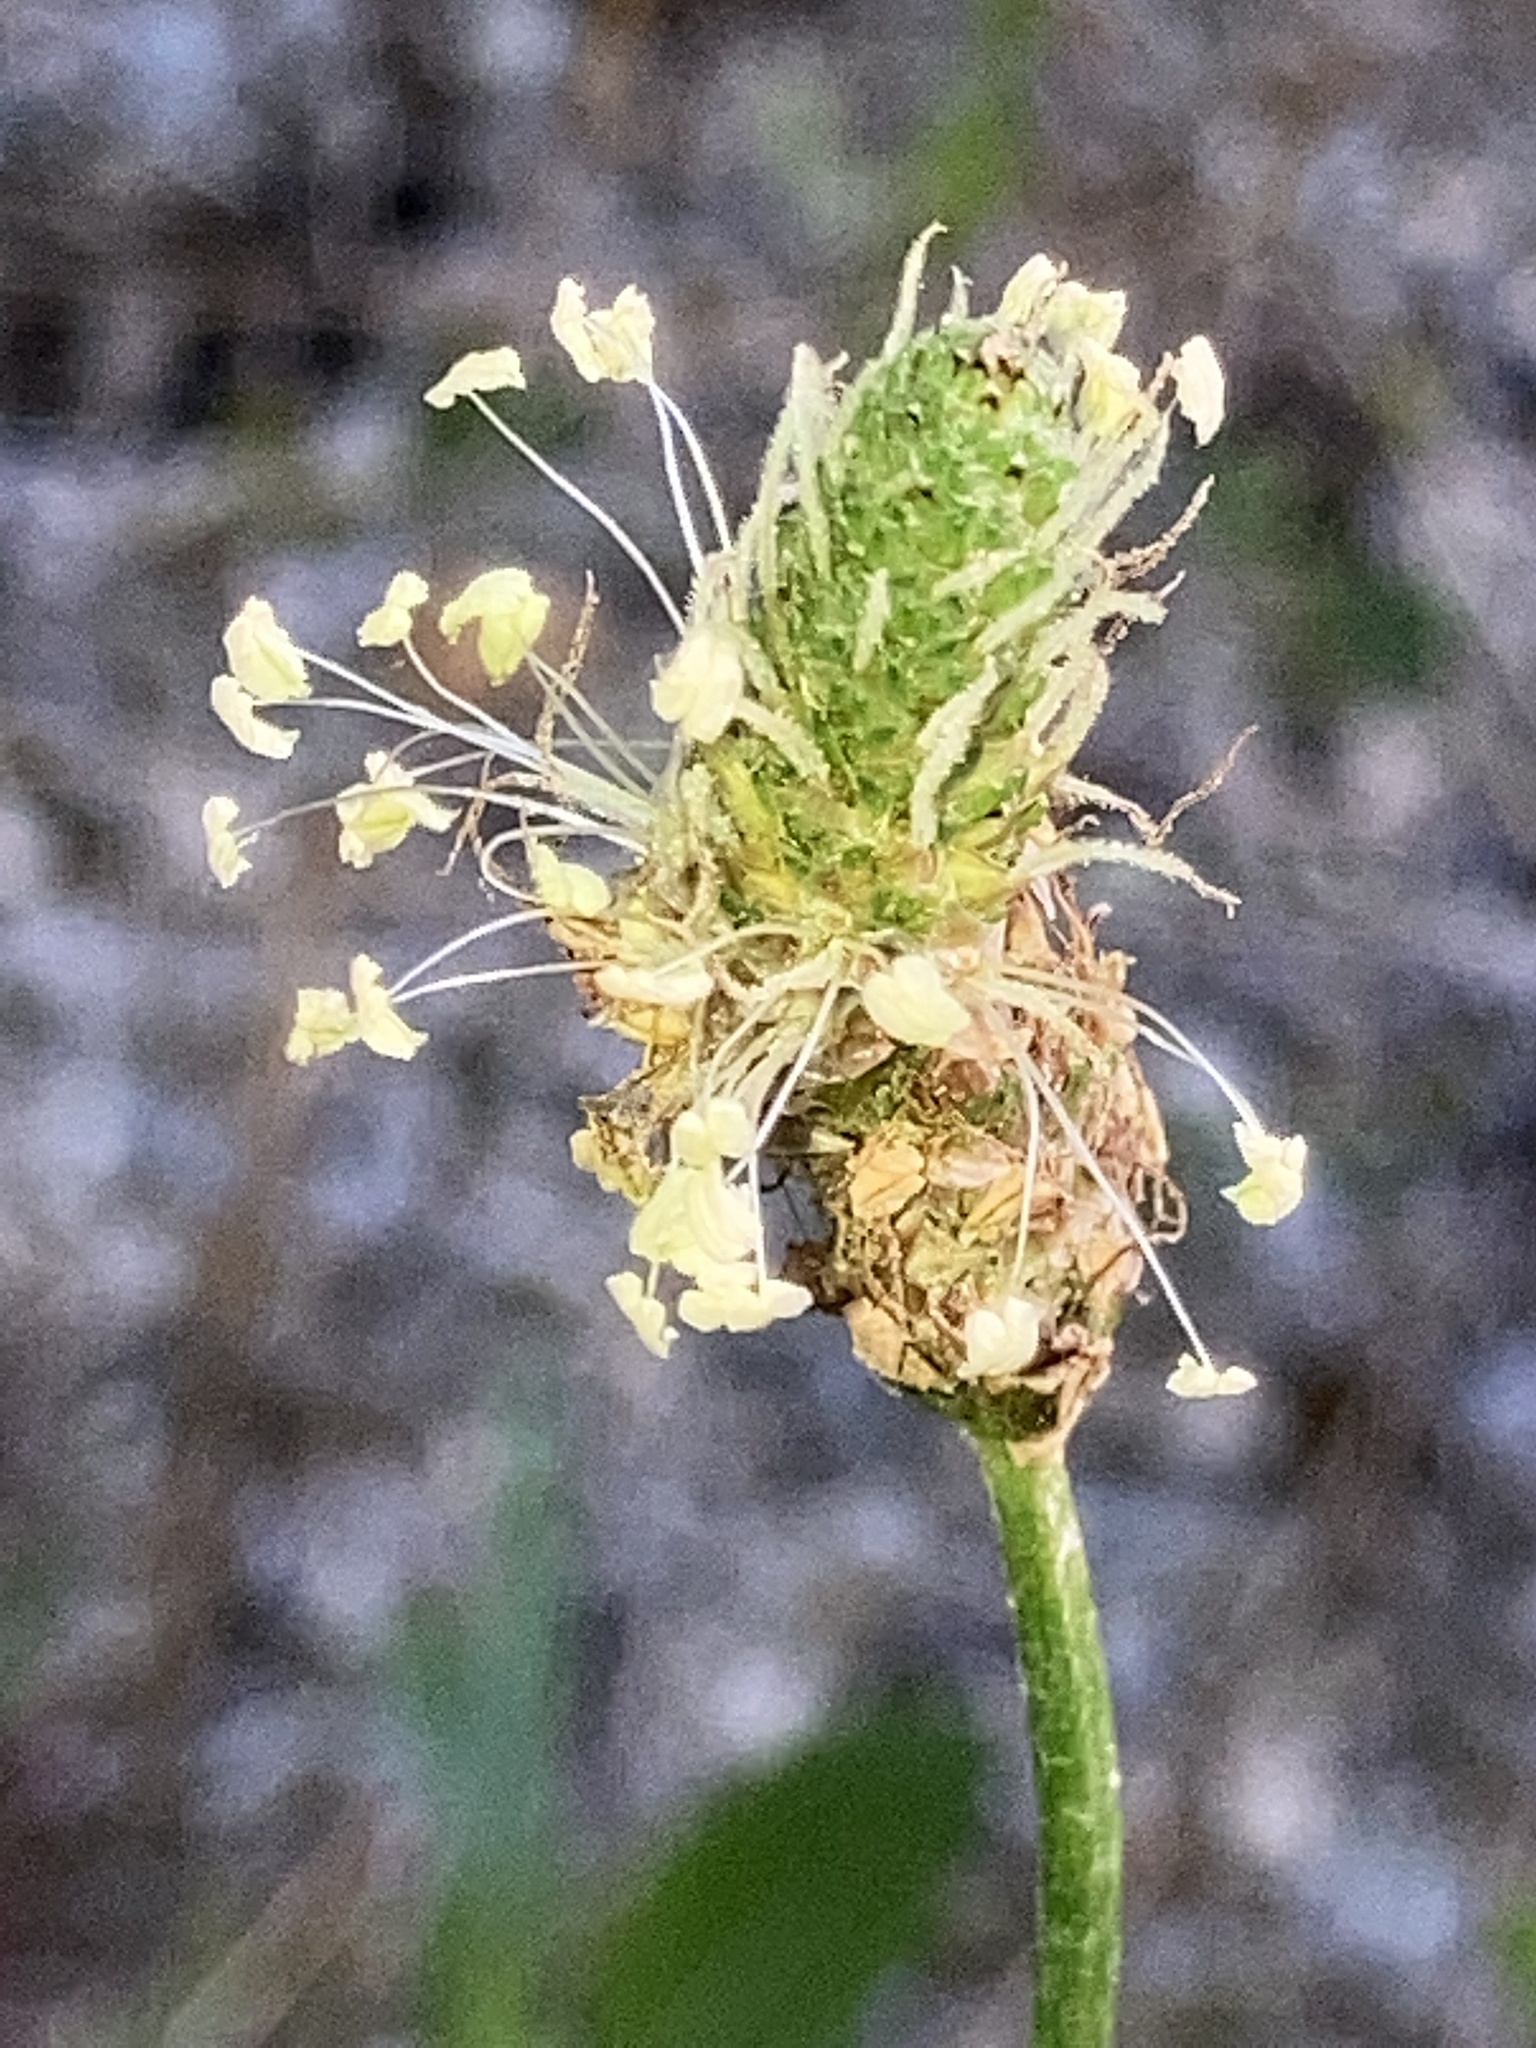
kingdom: Plantae
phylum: Tracheophyta
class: Magnoliopsida
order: Lamiales
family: Plantaginaceae
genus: Plantago
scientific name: Plantago lanceolata
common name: Ribwort plantain
